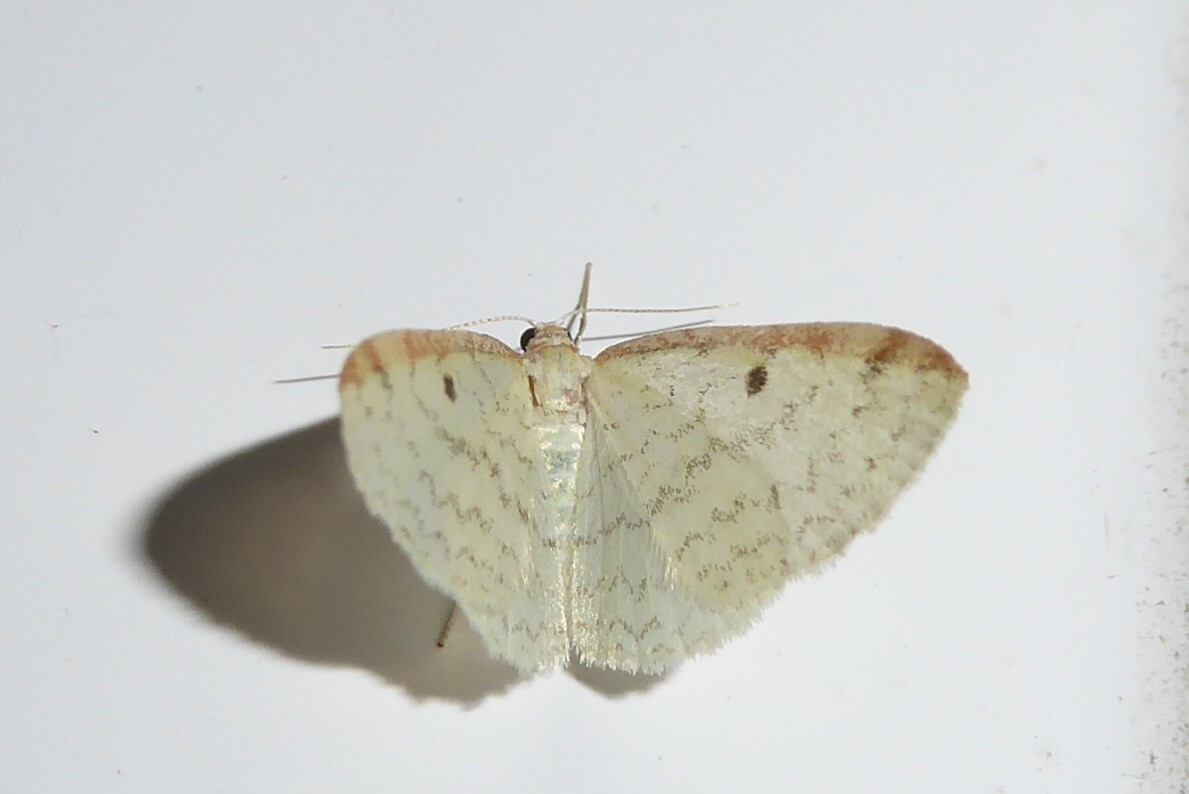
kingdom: Animalia
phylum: Arthropoda
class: Insecta
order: Lepidoptera
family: Geometridae
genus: Epiphryne
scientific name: Epiphryne undosata
